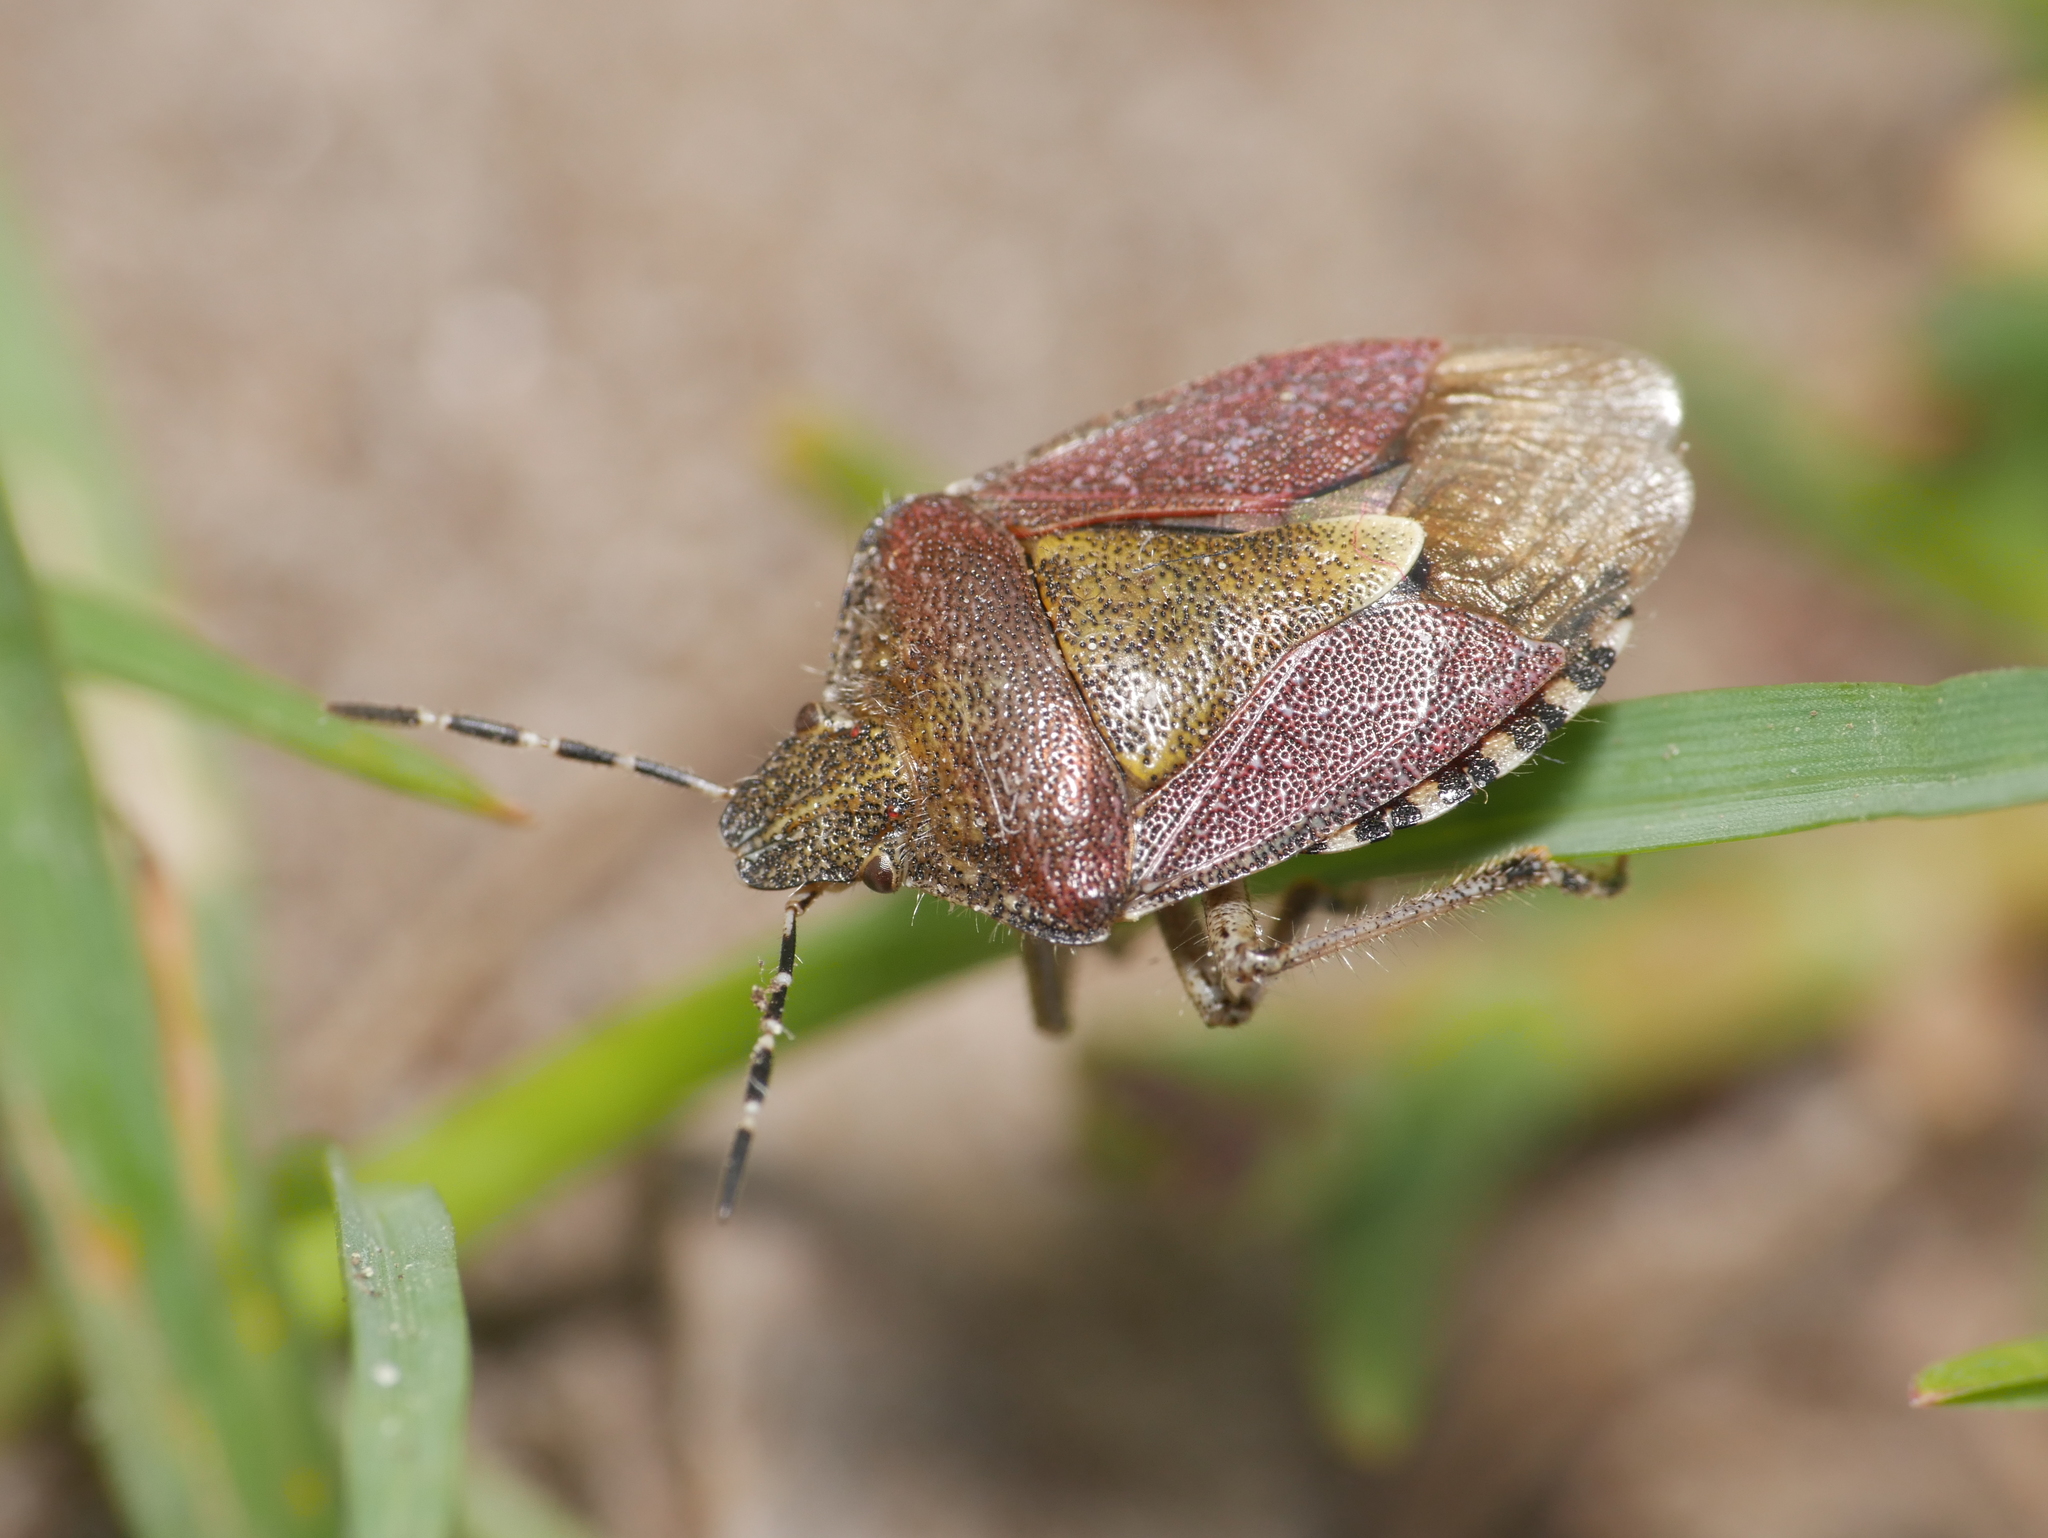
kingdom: Animalia
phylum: Arthropoda
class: Insecta
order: Hemiptera
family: Pentatomidae
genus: Dolycoris
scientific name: Dolycoris baccarum
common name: Sloe bug
